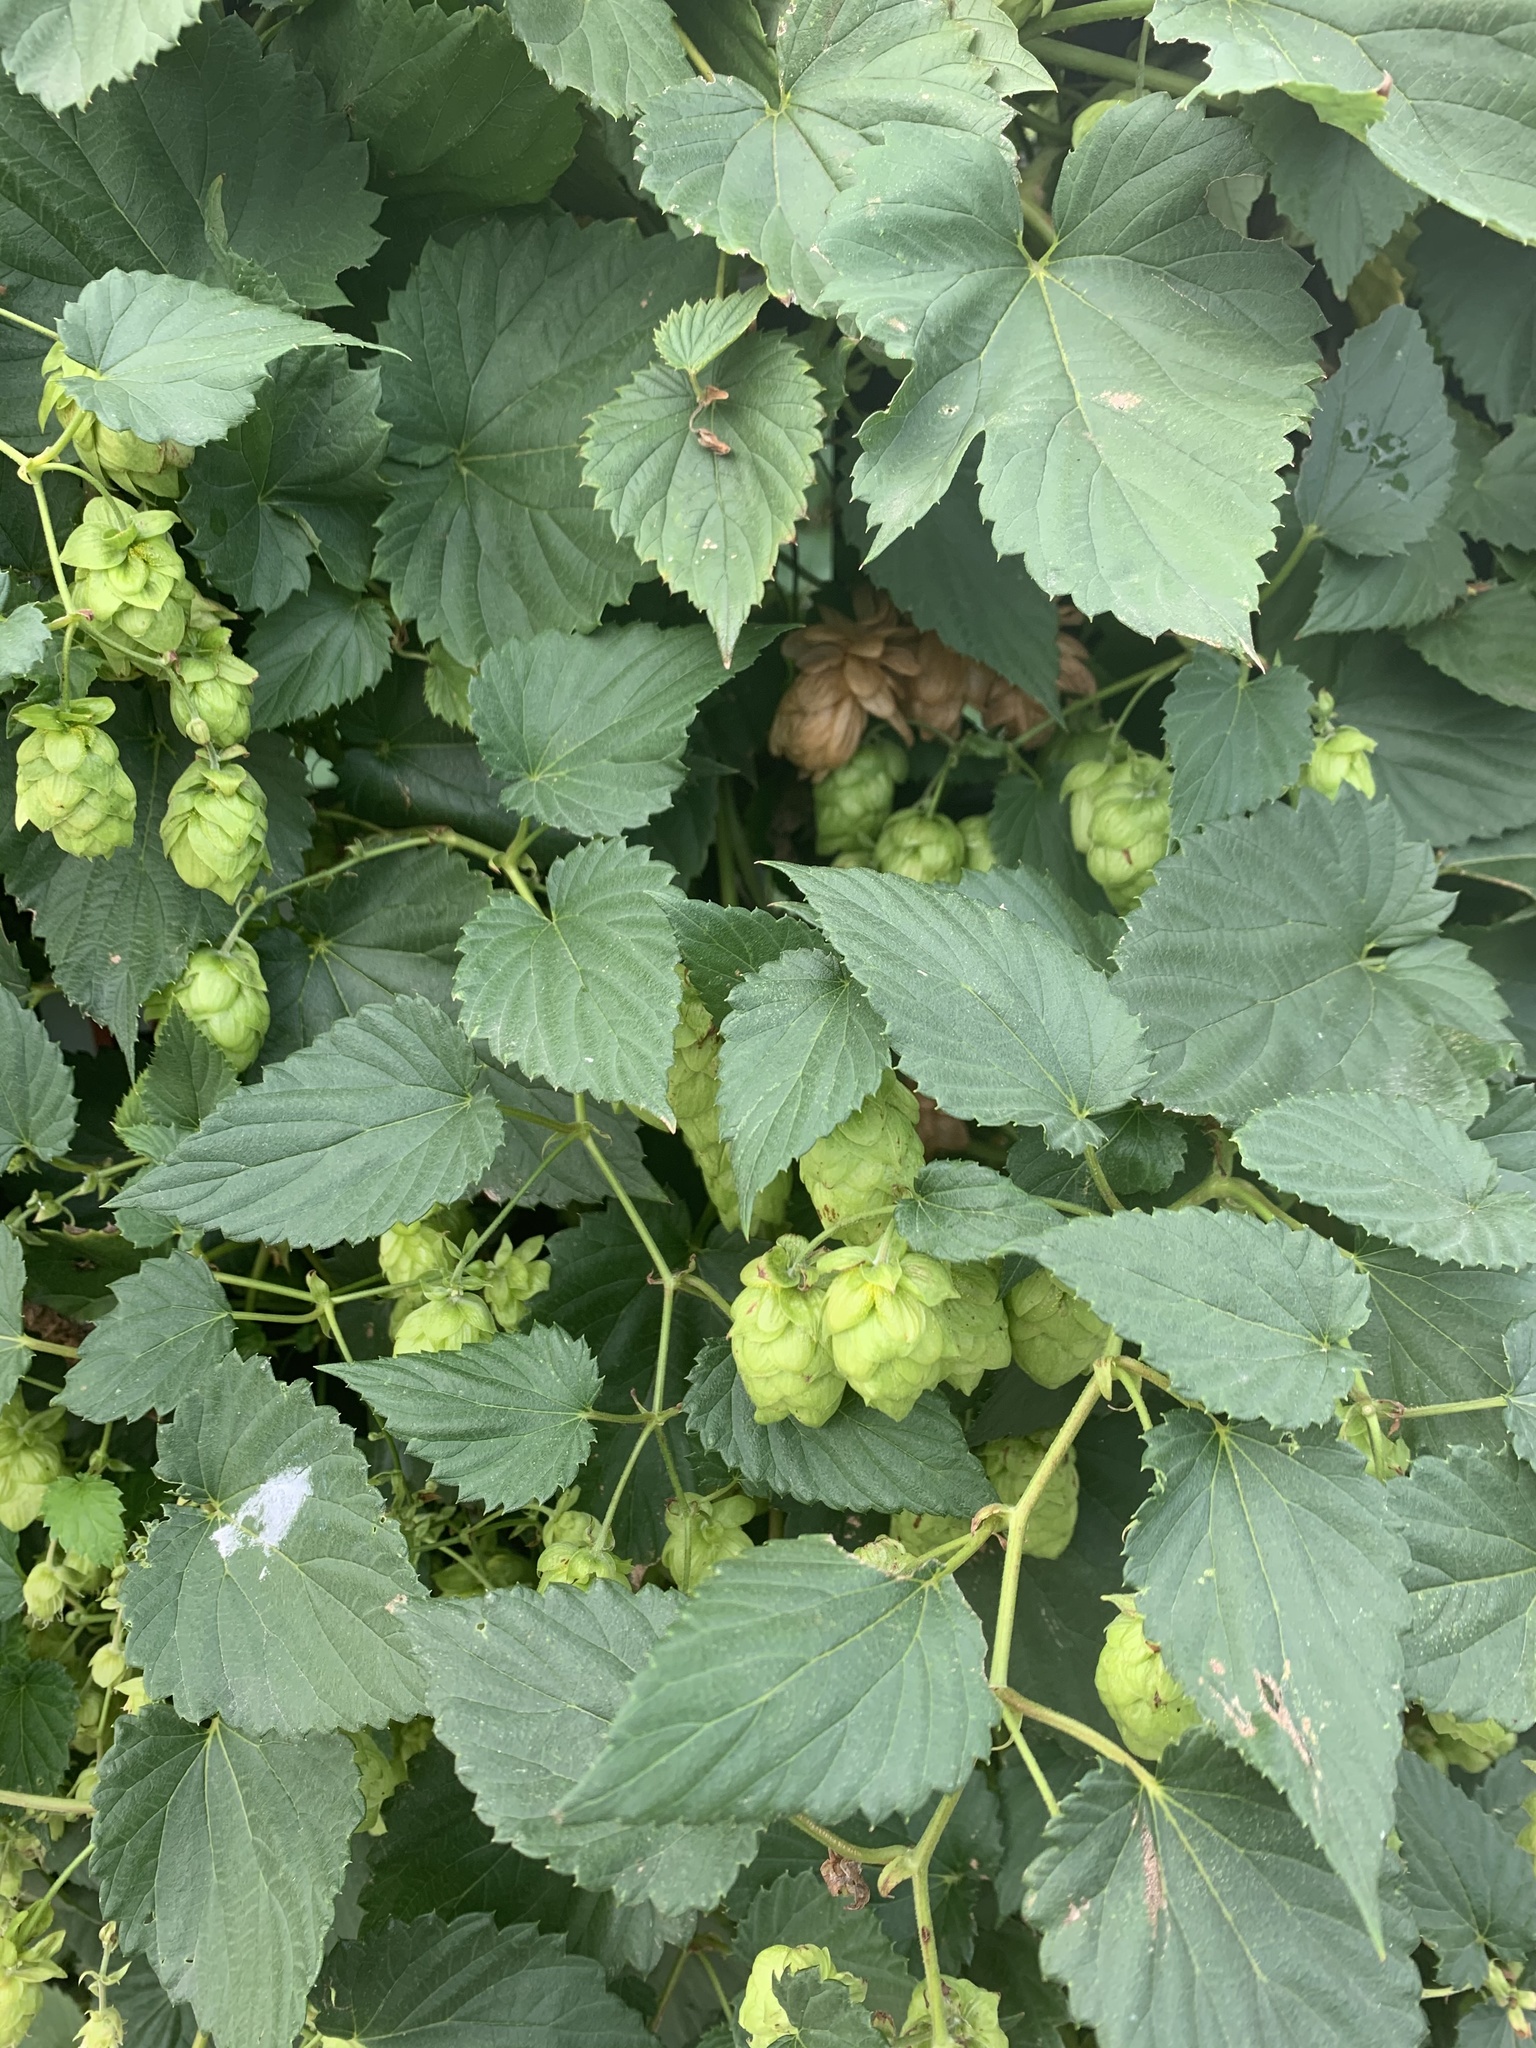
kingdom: Plantae
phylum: Tracheophyta
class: Magnoliopsida
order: Rosales
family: Cannabaceae
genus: Humulus
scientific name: Humulus lupulus
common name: Hop
